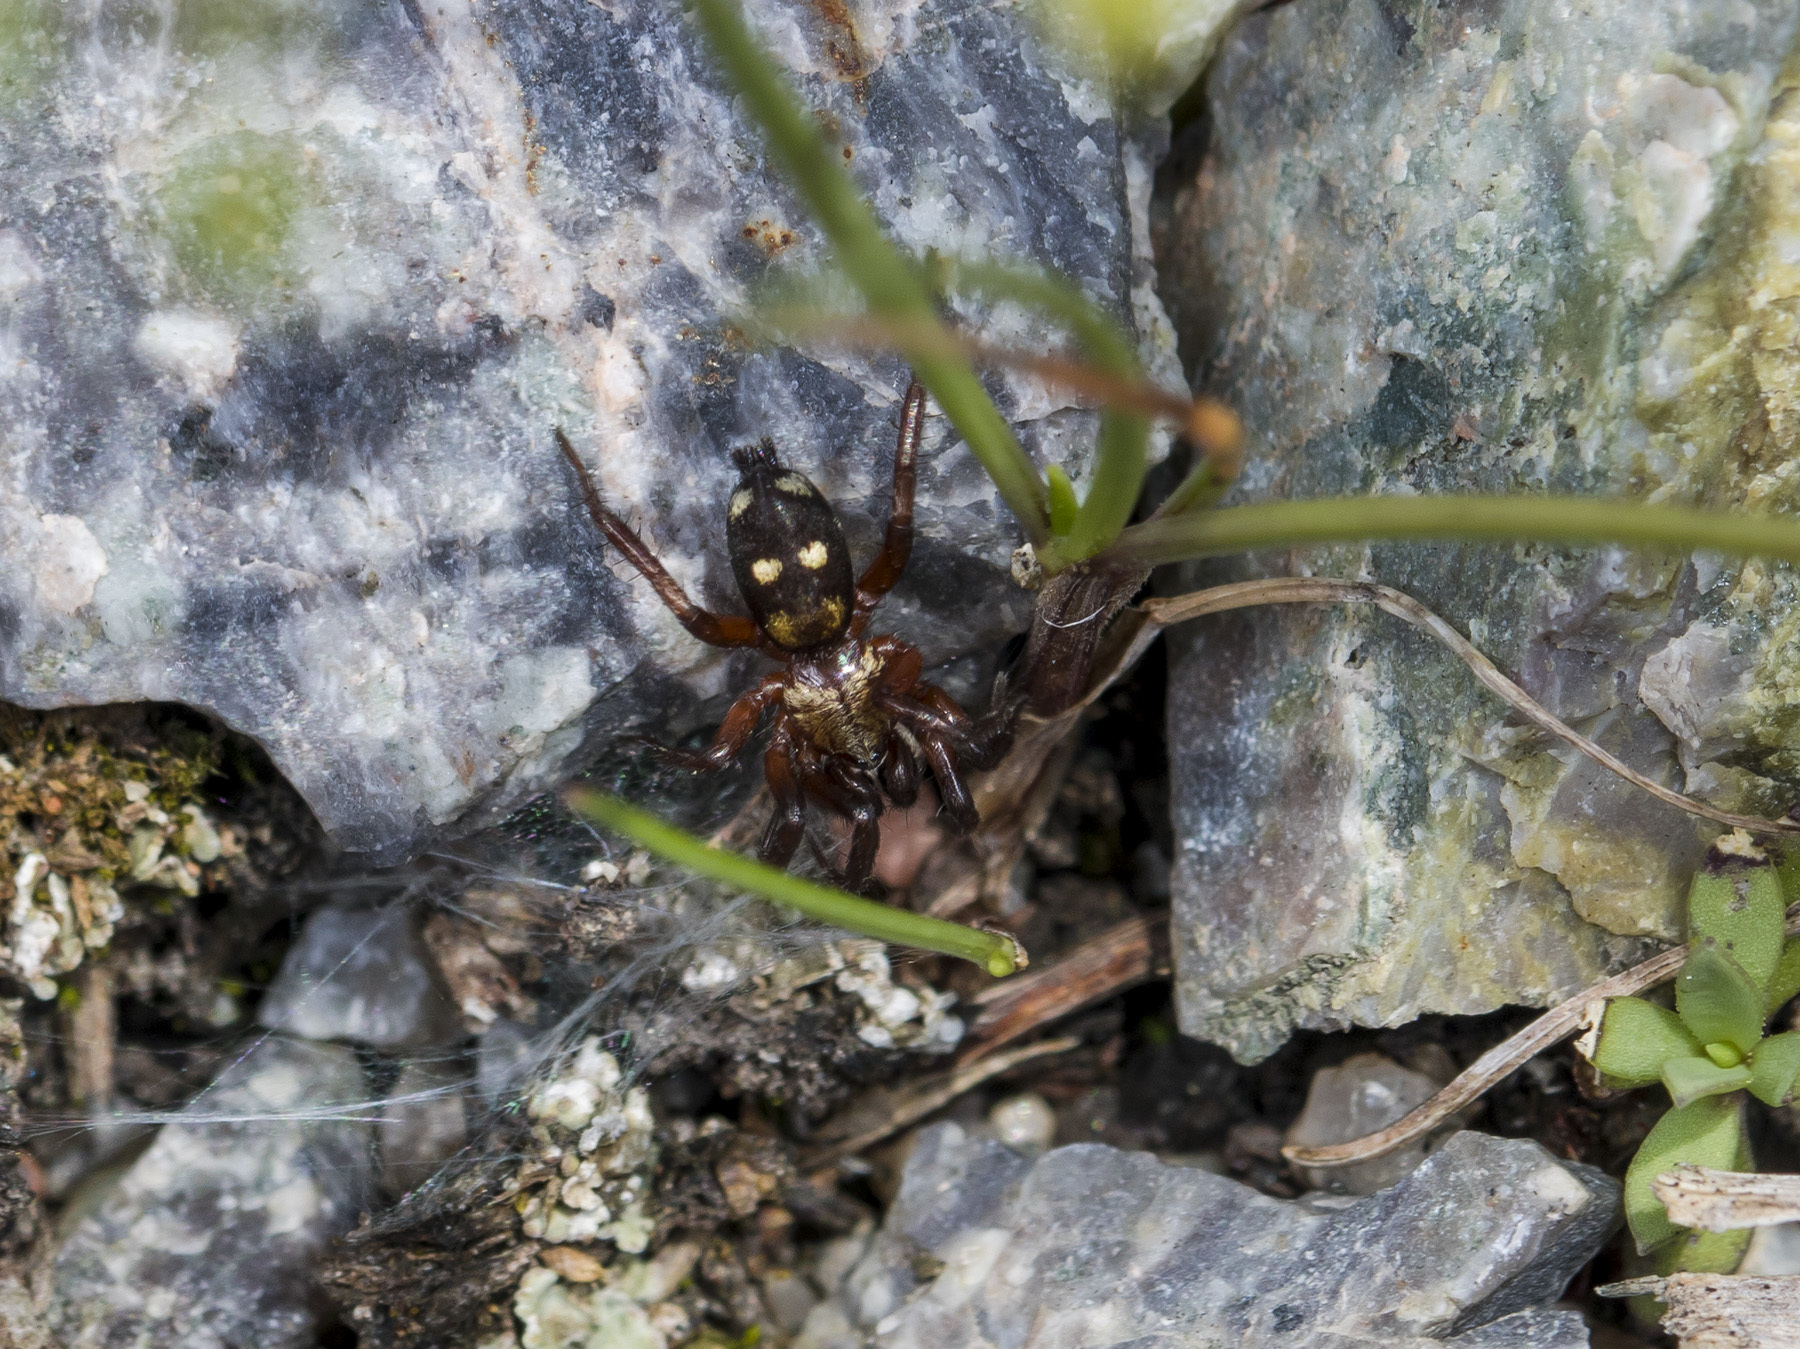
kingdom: Animalia
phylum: Arthropoda
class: Arachnida
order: Araneae
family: Gnaphosidae
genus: Callilepis
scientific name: Callilepis nocturna
